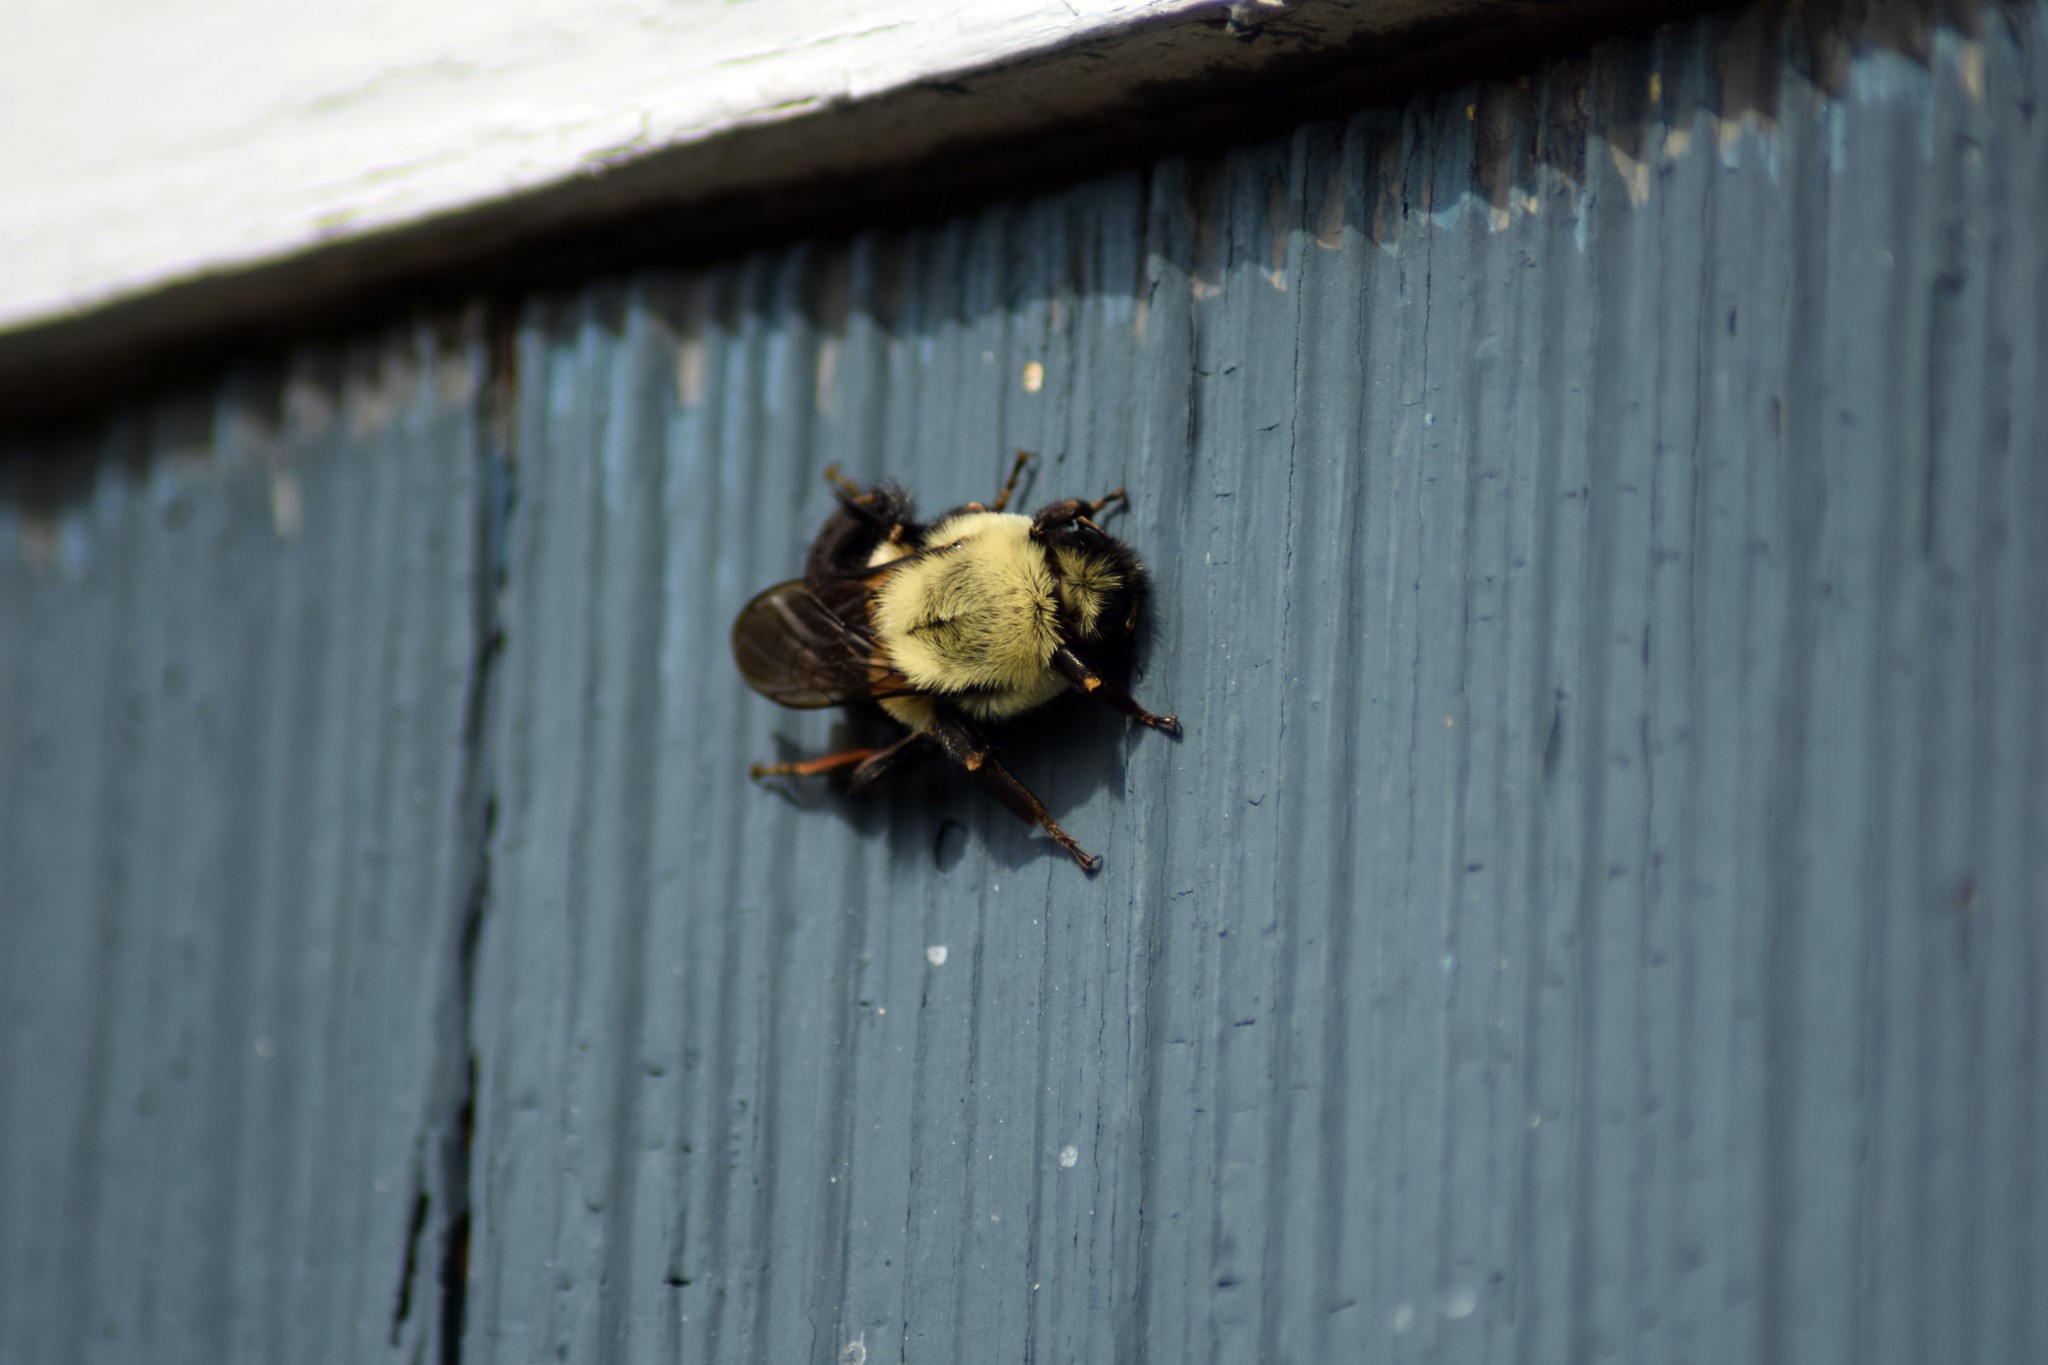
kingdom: Animalia
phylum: Arthropoda
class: Insecta
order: Hymenoptera
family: Apidae
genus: Bombus
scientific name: Bombus impatiens
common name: Common eastern bumble bee
